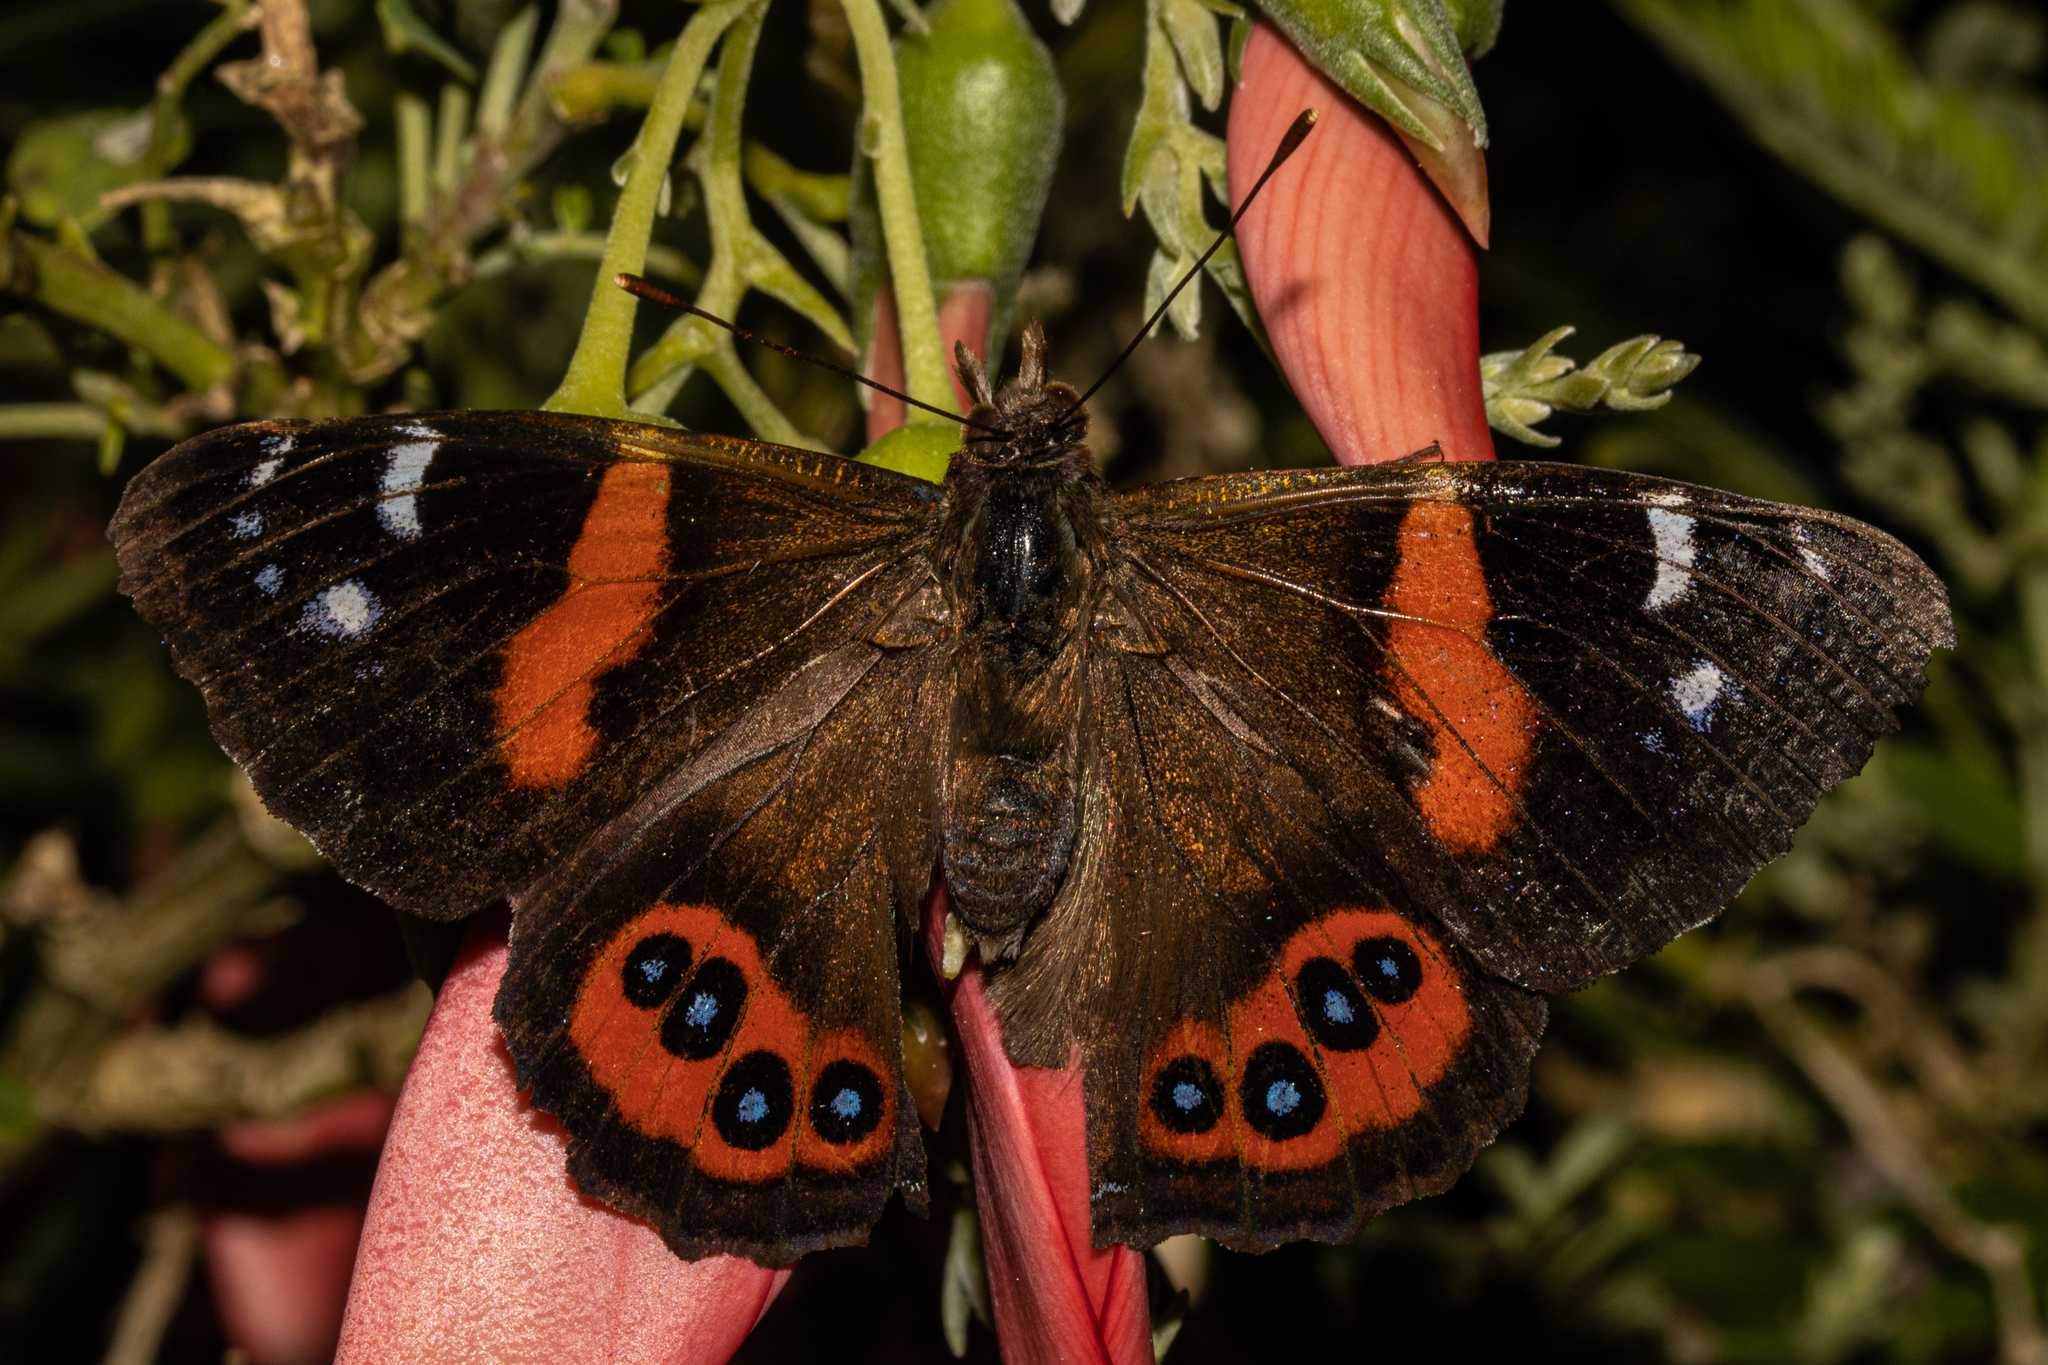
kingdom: Animalia
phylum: Arthropoda
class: Insecta
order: Lepidoptera
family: Nymphalidae
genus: Vanessa
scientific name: Vanessa gonerilla
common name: New zealand red admiral
